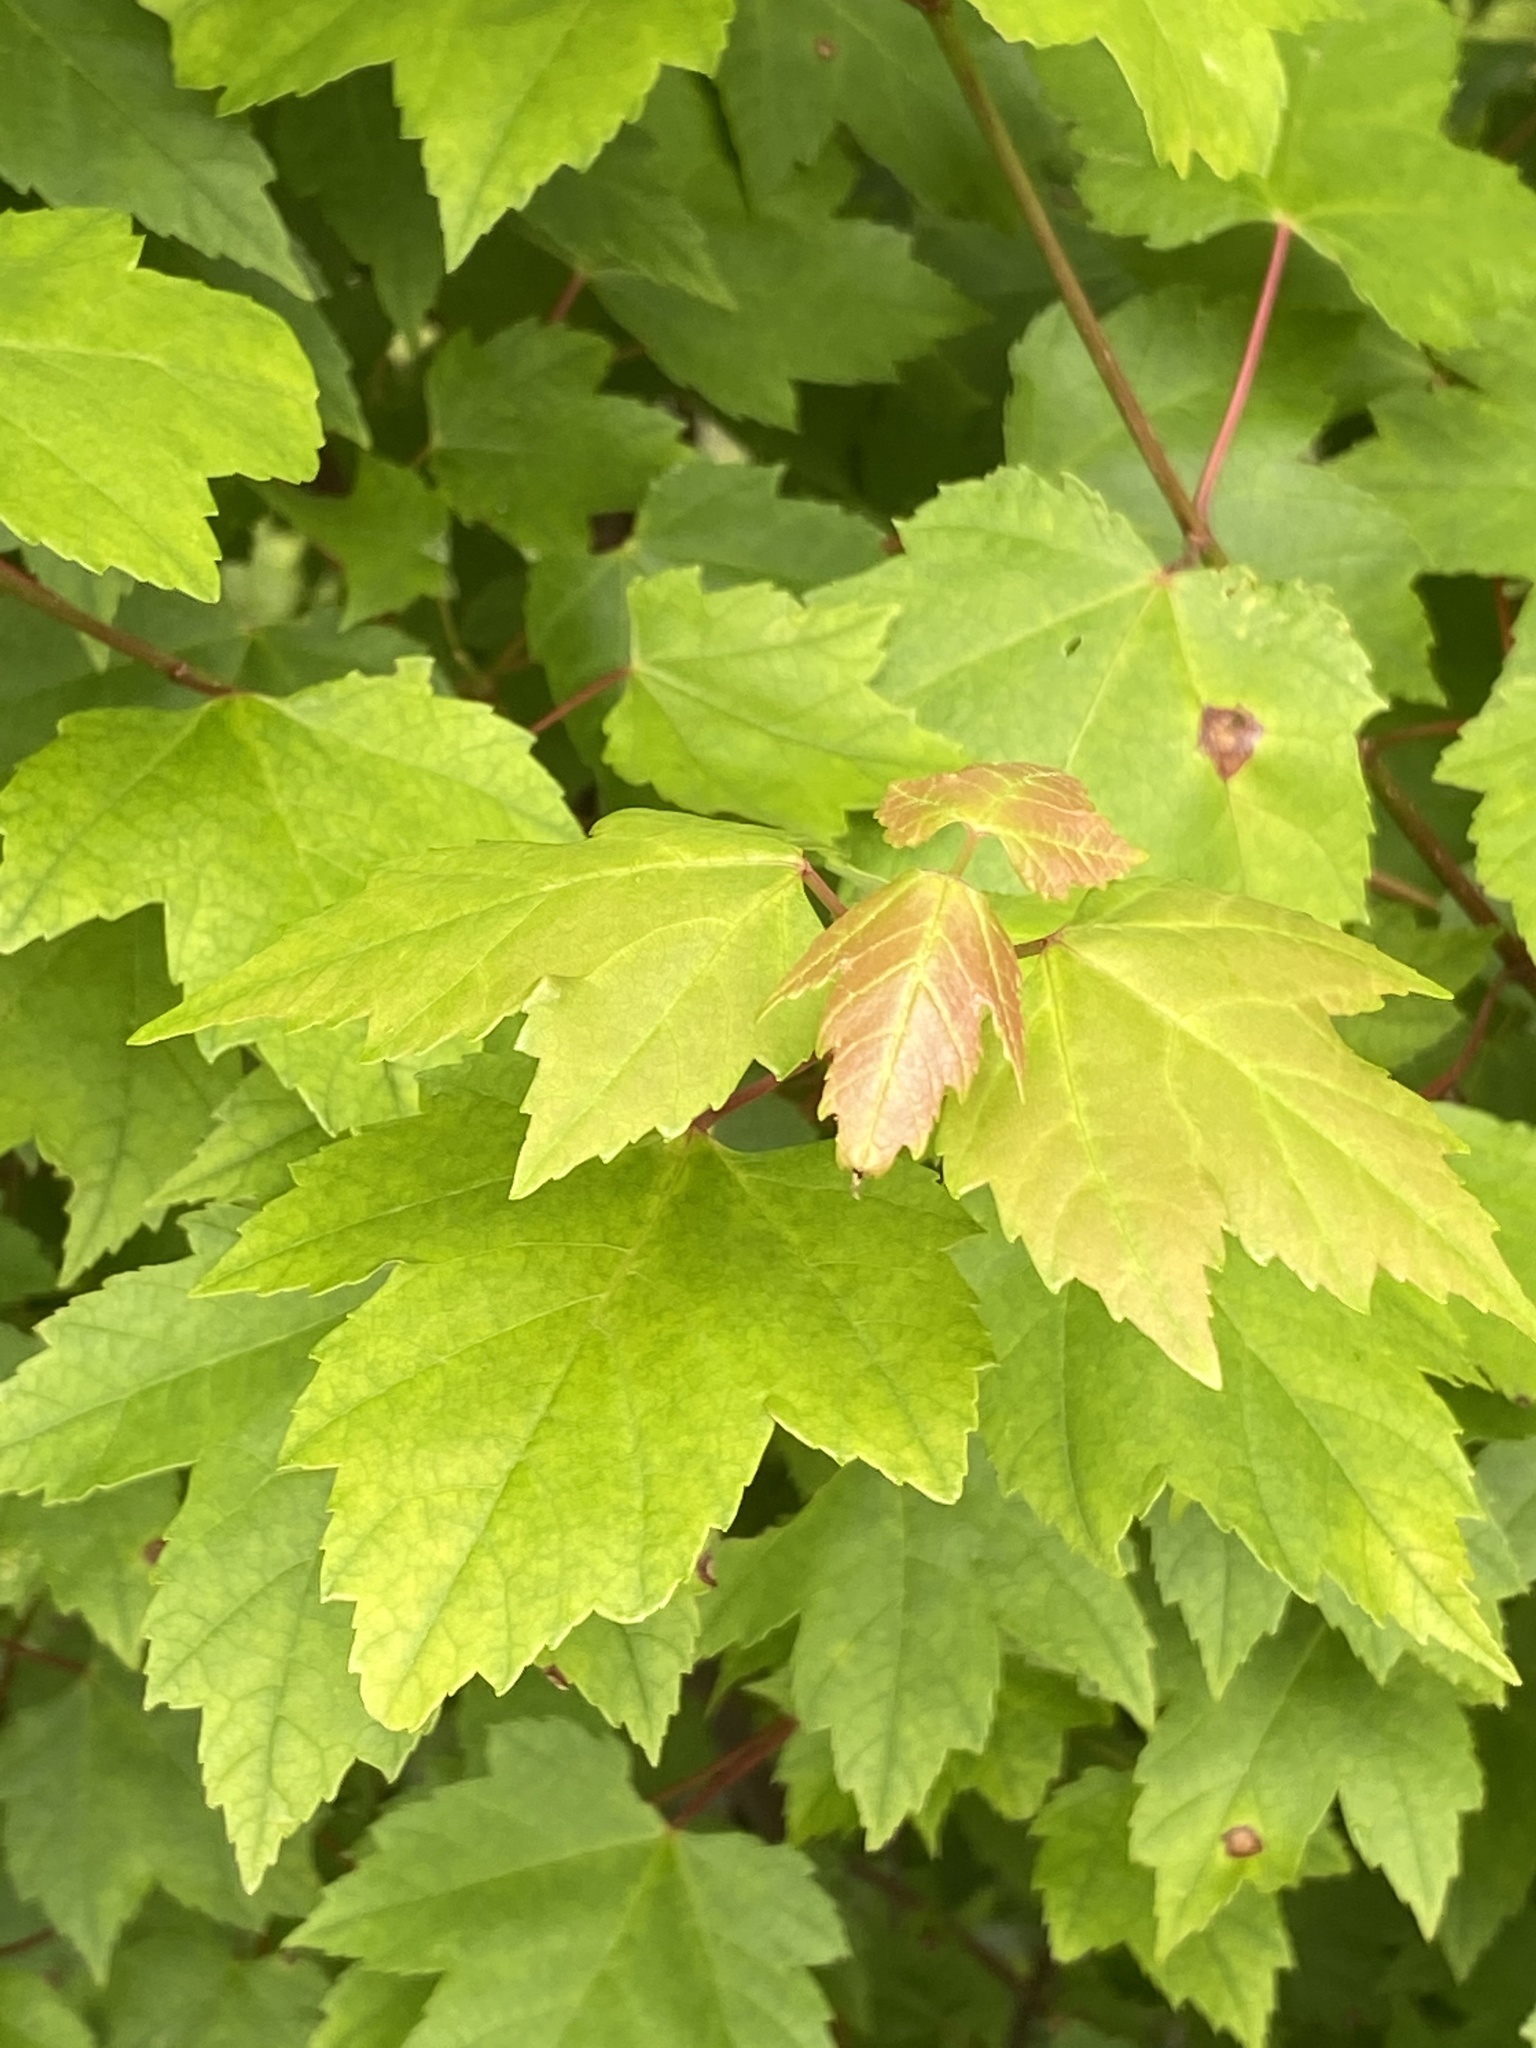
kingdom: Plantae
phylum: Tracheophyta
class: Magnoliopsida
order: Sapindales
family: Sapindaceae
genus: Acer
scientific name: Acer rubrum
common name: Red maple
